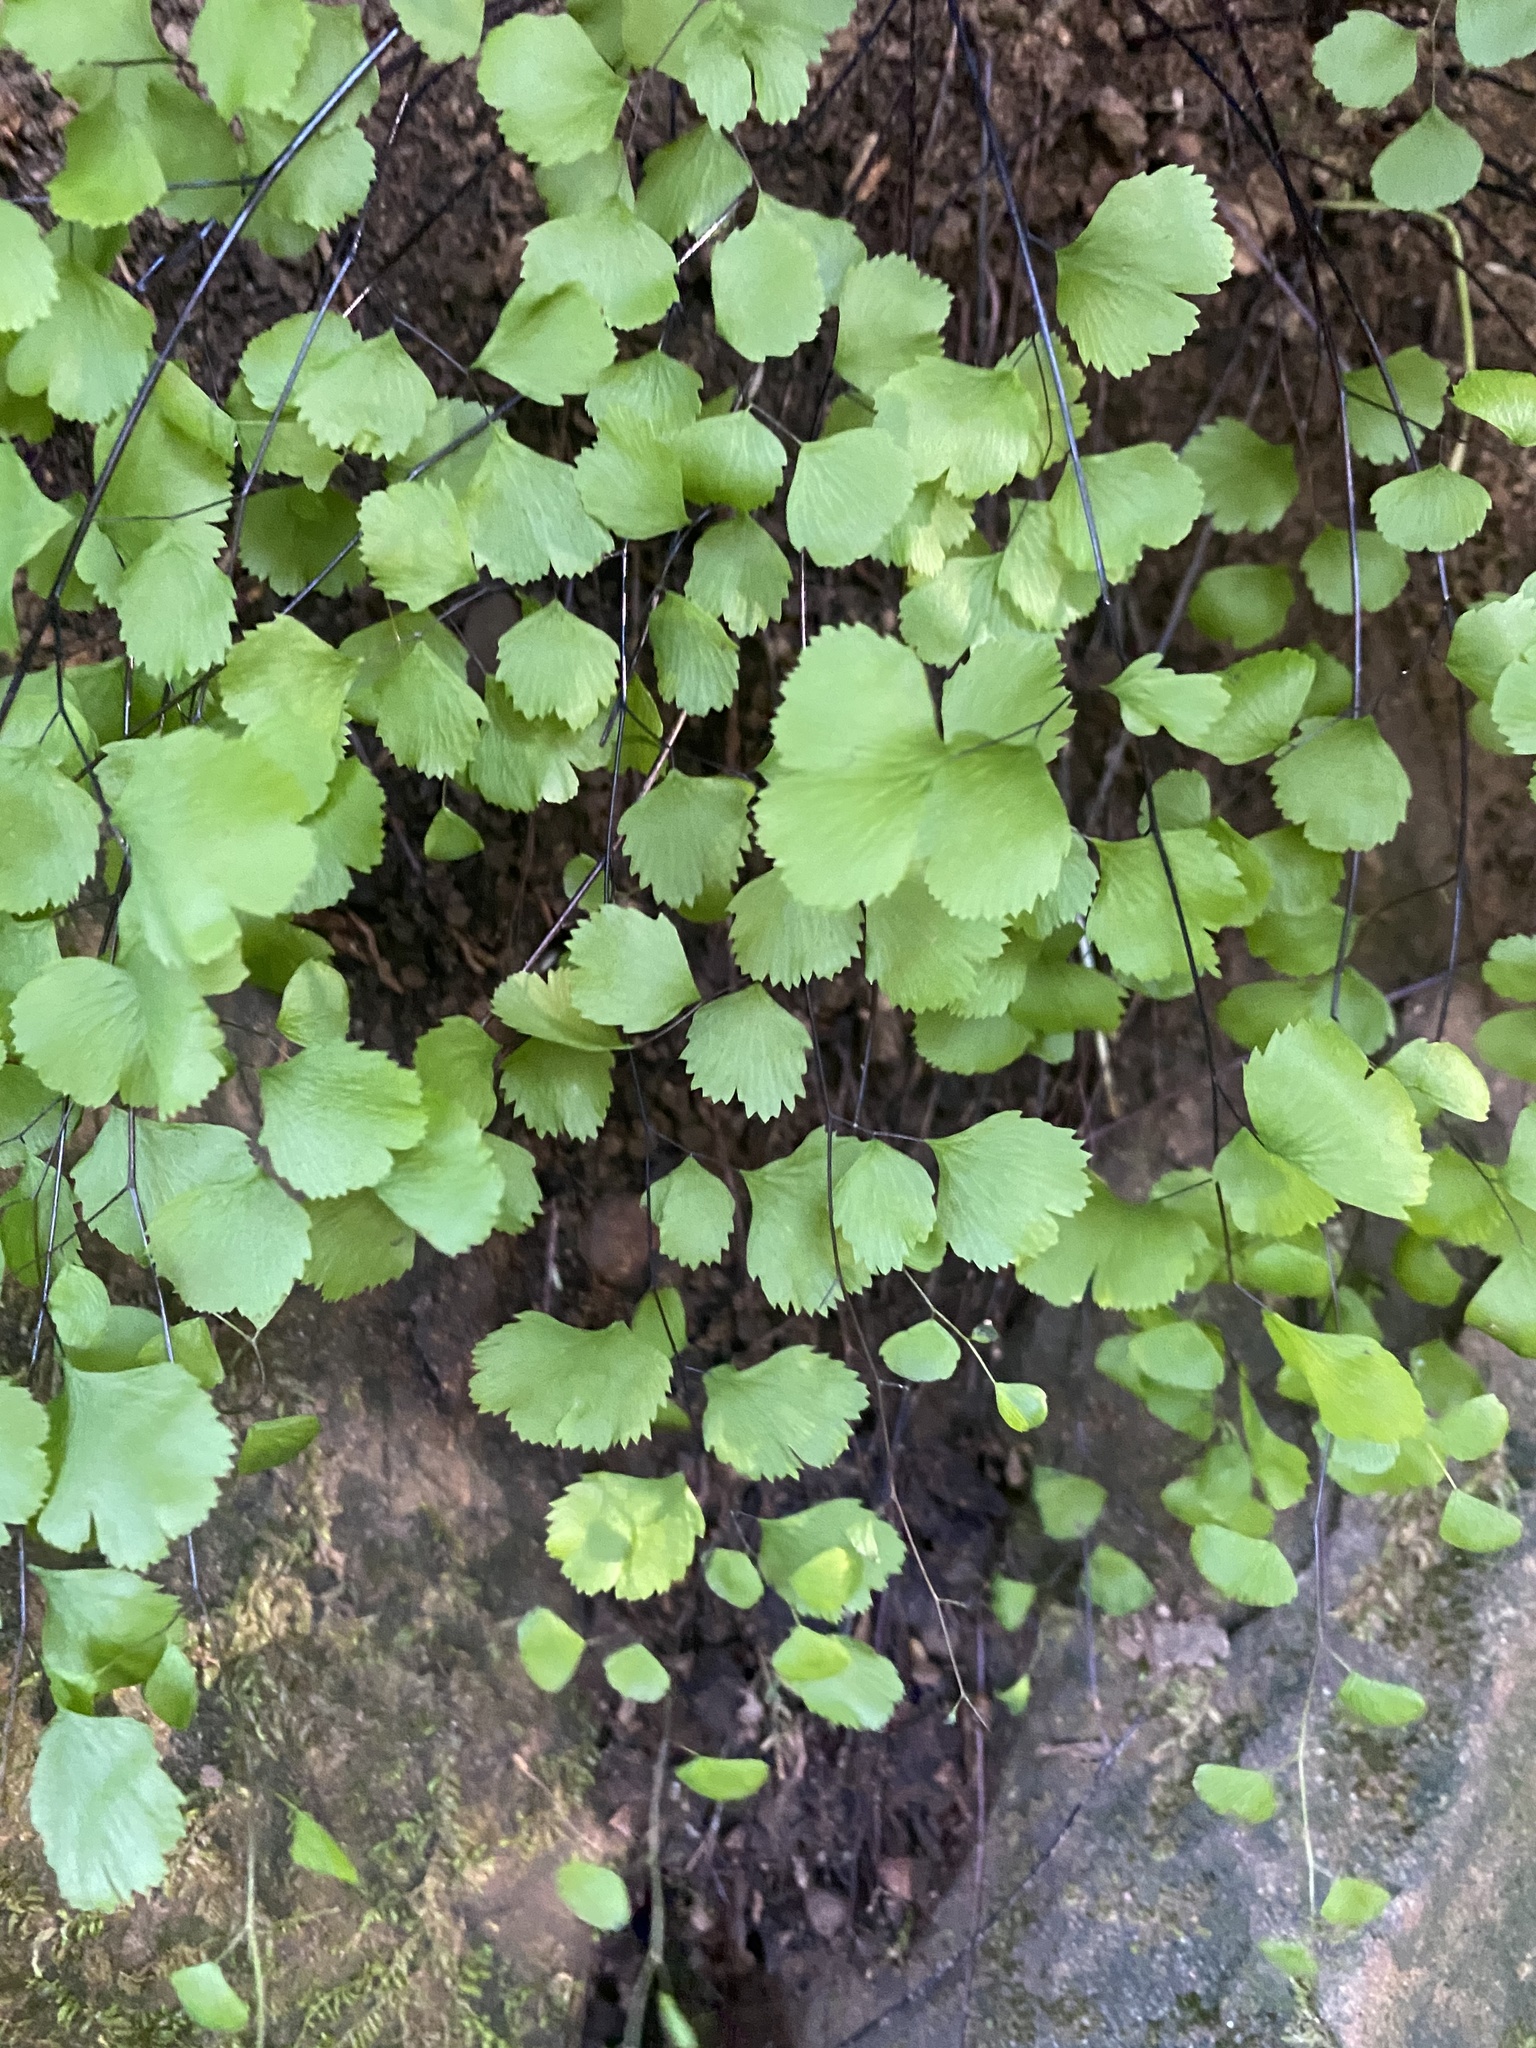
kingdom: Plantae
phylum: Tracheophyta
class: Polypodiopsida
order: Polypodiales
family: Pteridaceae
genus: Adiantum
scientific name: Adiantum jordanii
